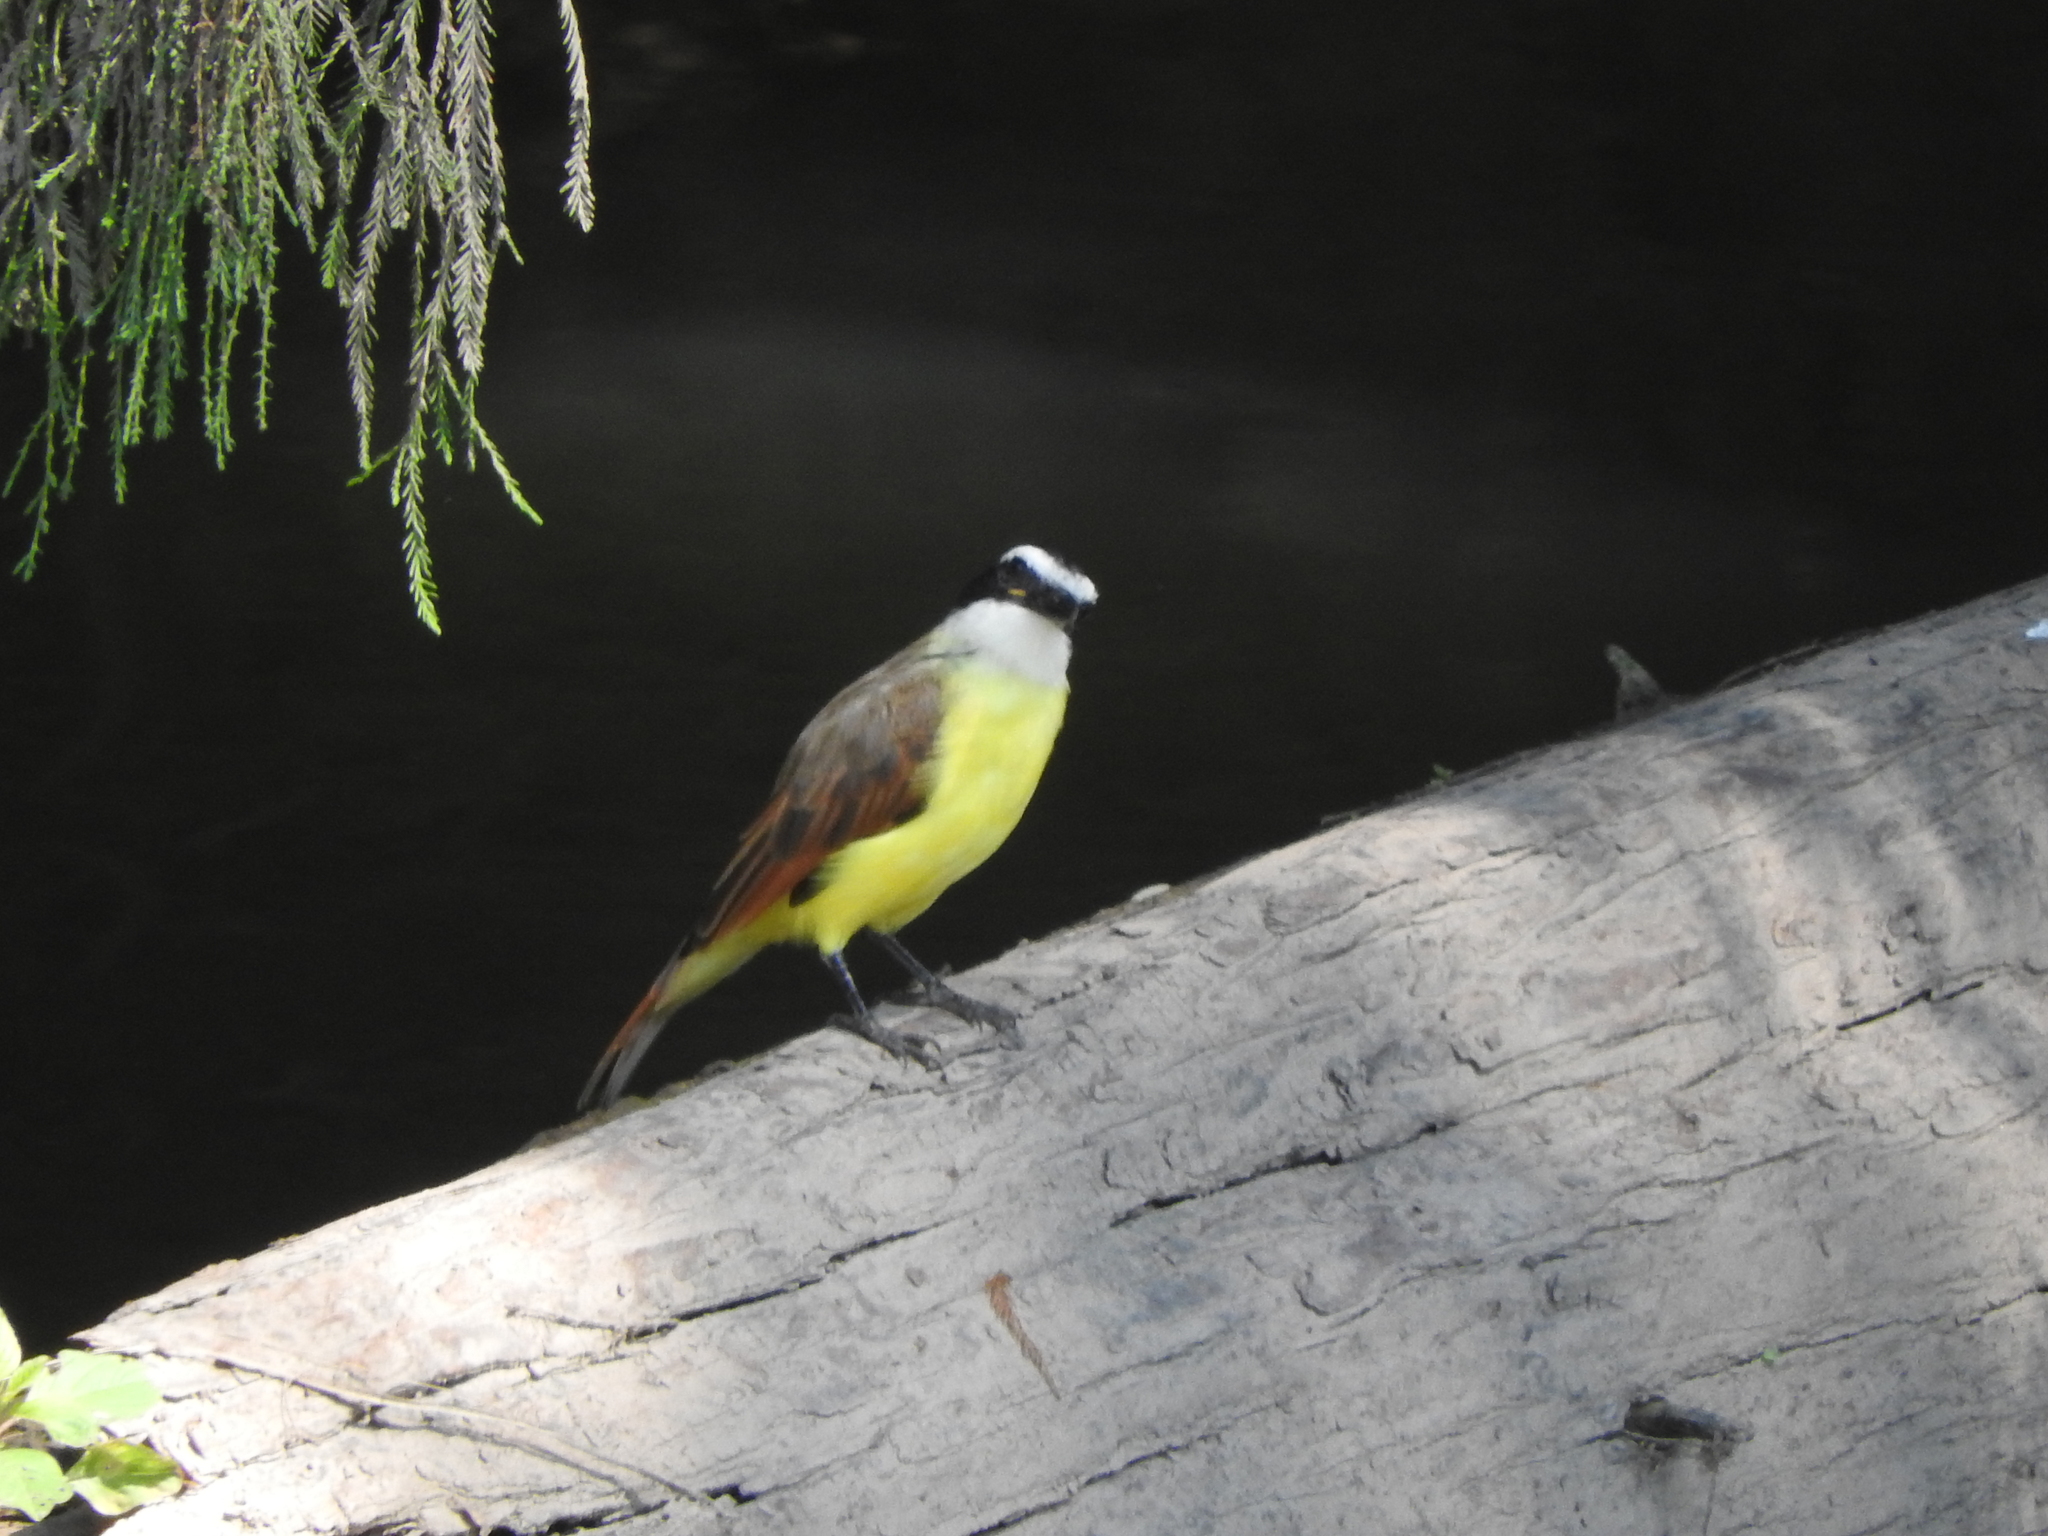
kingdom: Animalia
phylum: Chordata
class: Aves
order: Passeriformes
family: Tyrannidae
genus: Pitangus
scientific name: Pitangus sulphuratus
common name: Great kiskadee
